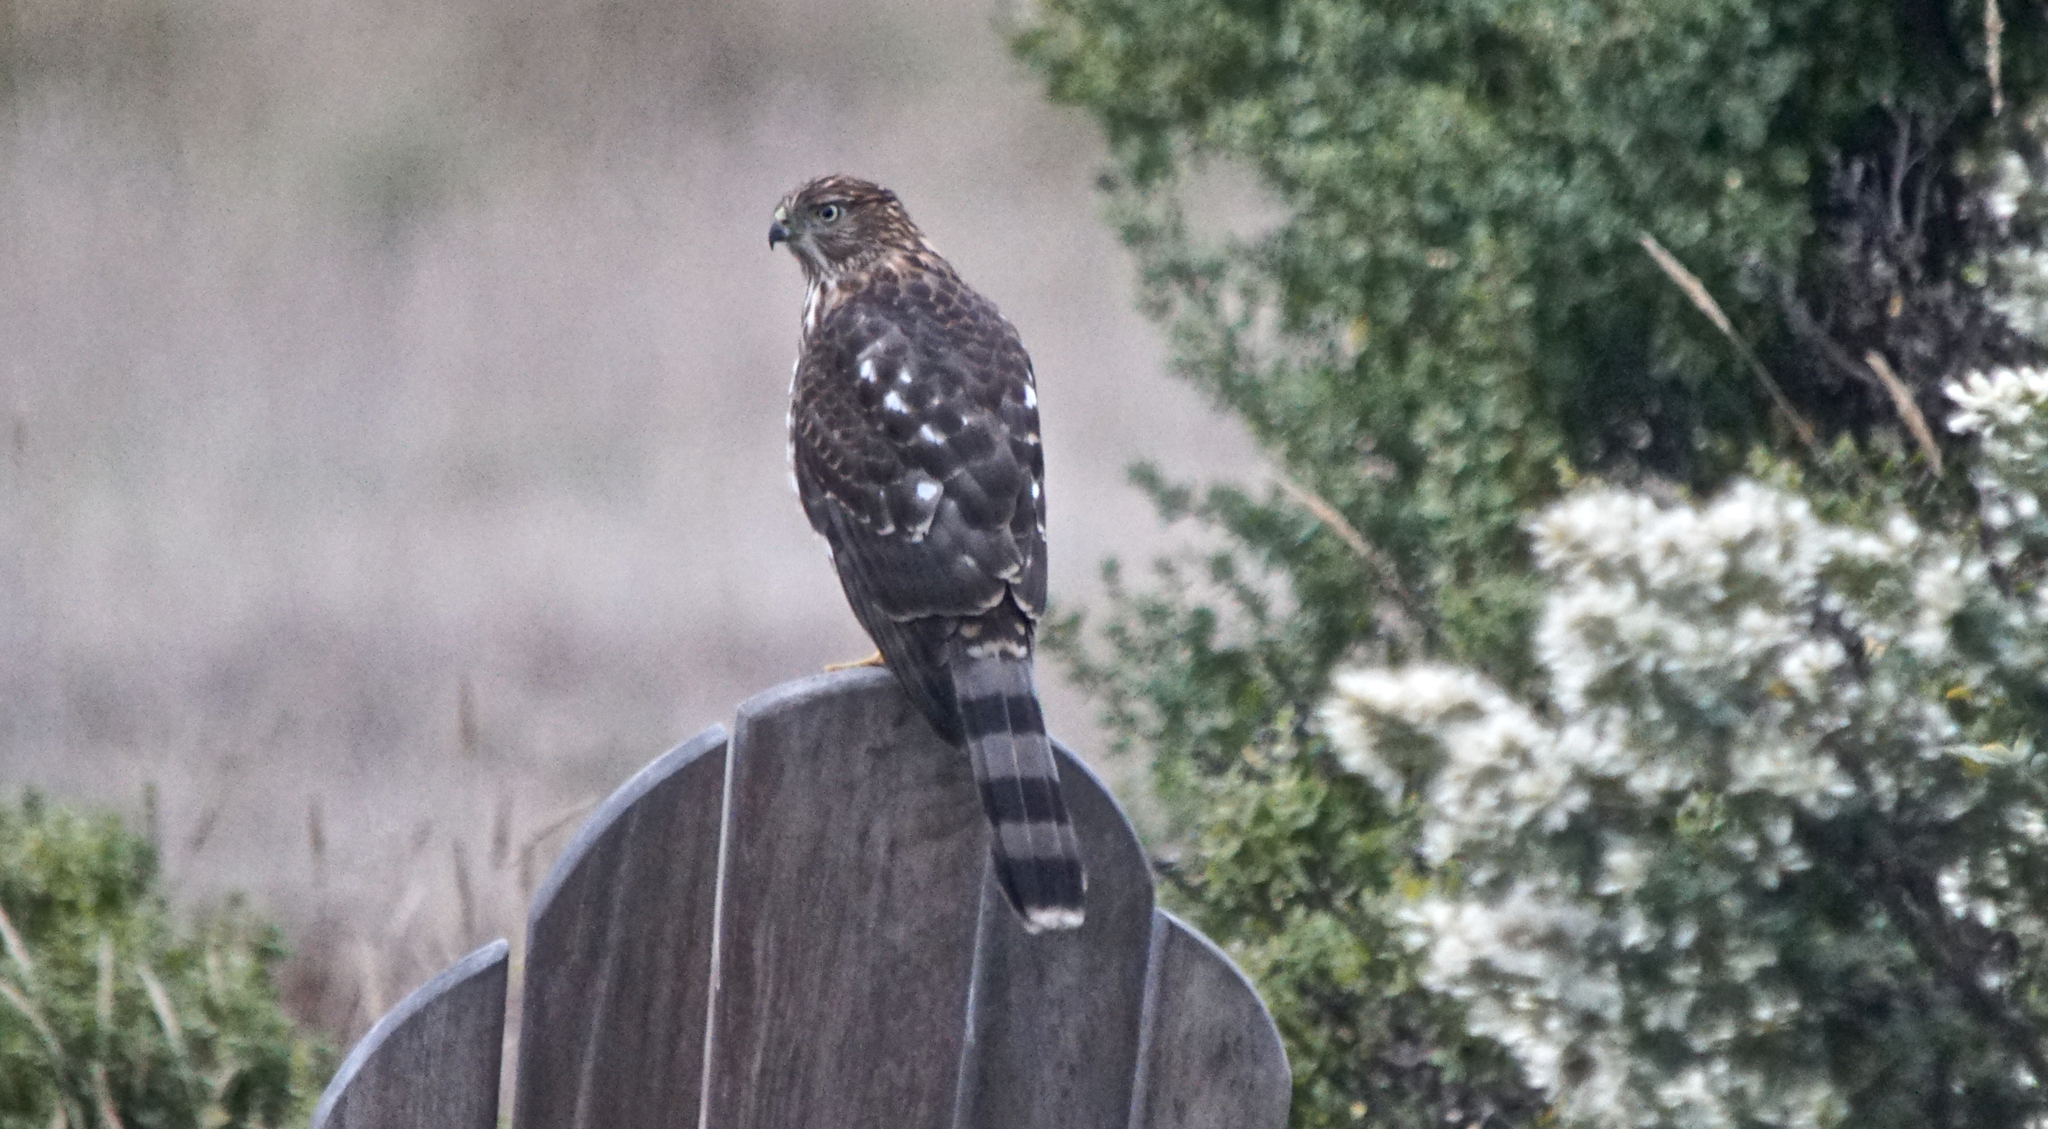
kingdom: Animalia
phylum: Chordata
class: Aves
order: Accipitriformes
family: Accipitridae
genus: Accipiter
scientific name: Accipiter cooperii
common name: Cooper's hawk
